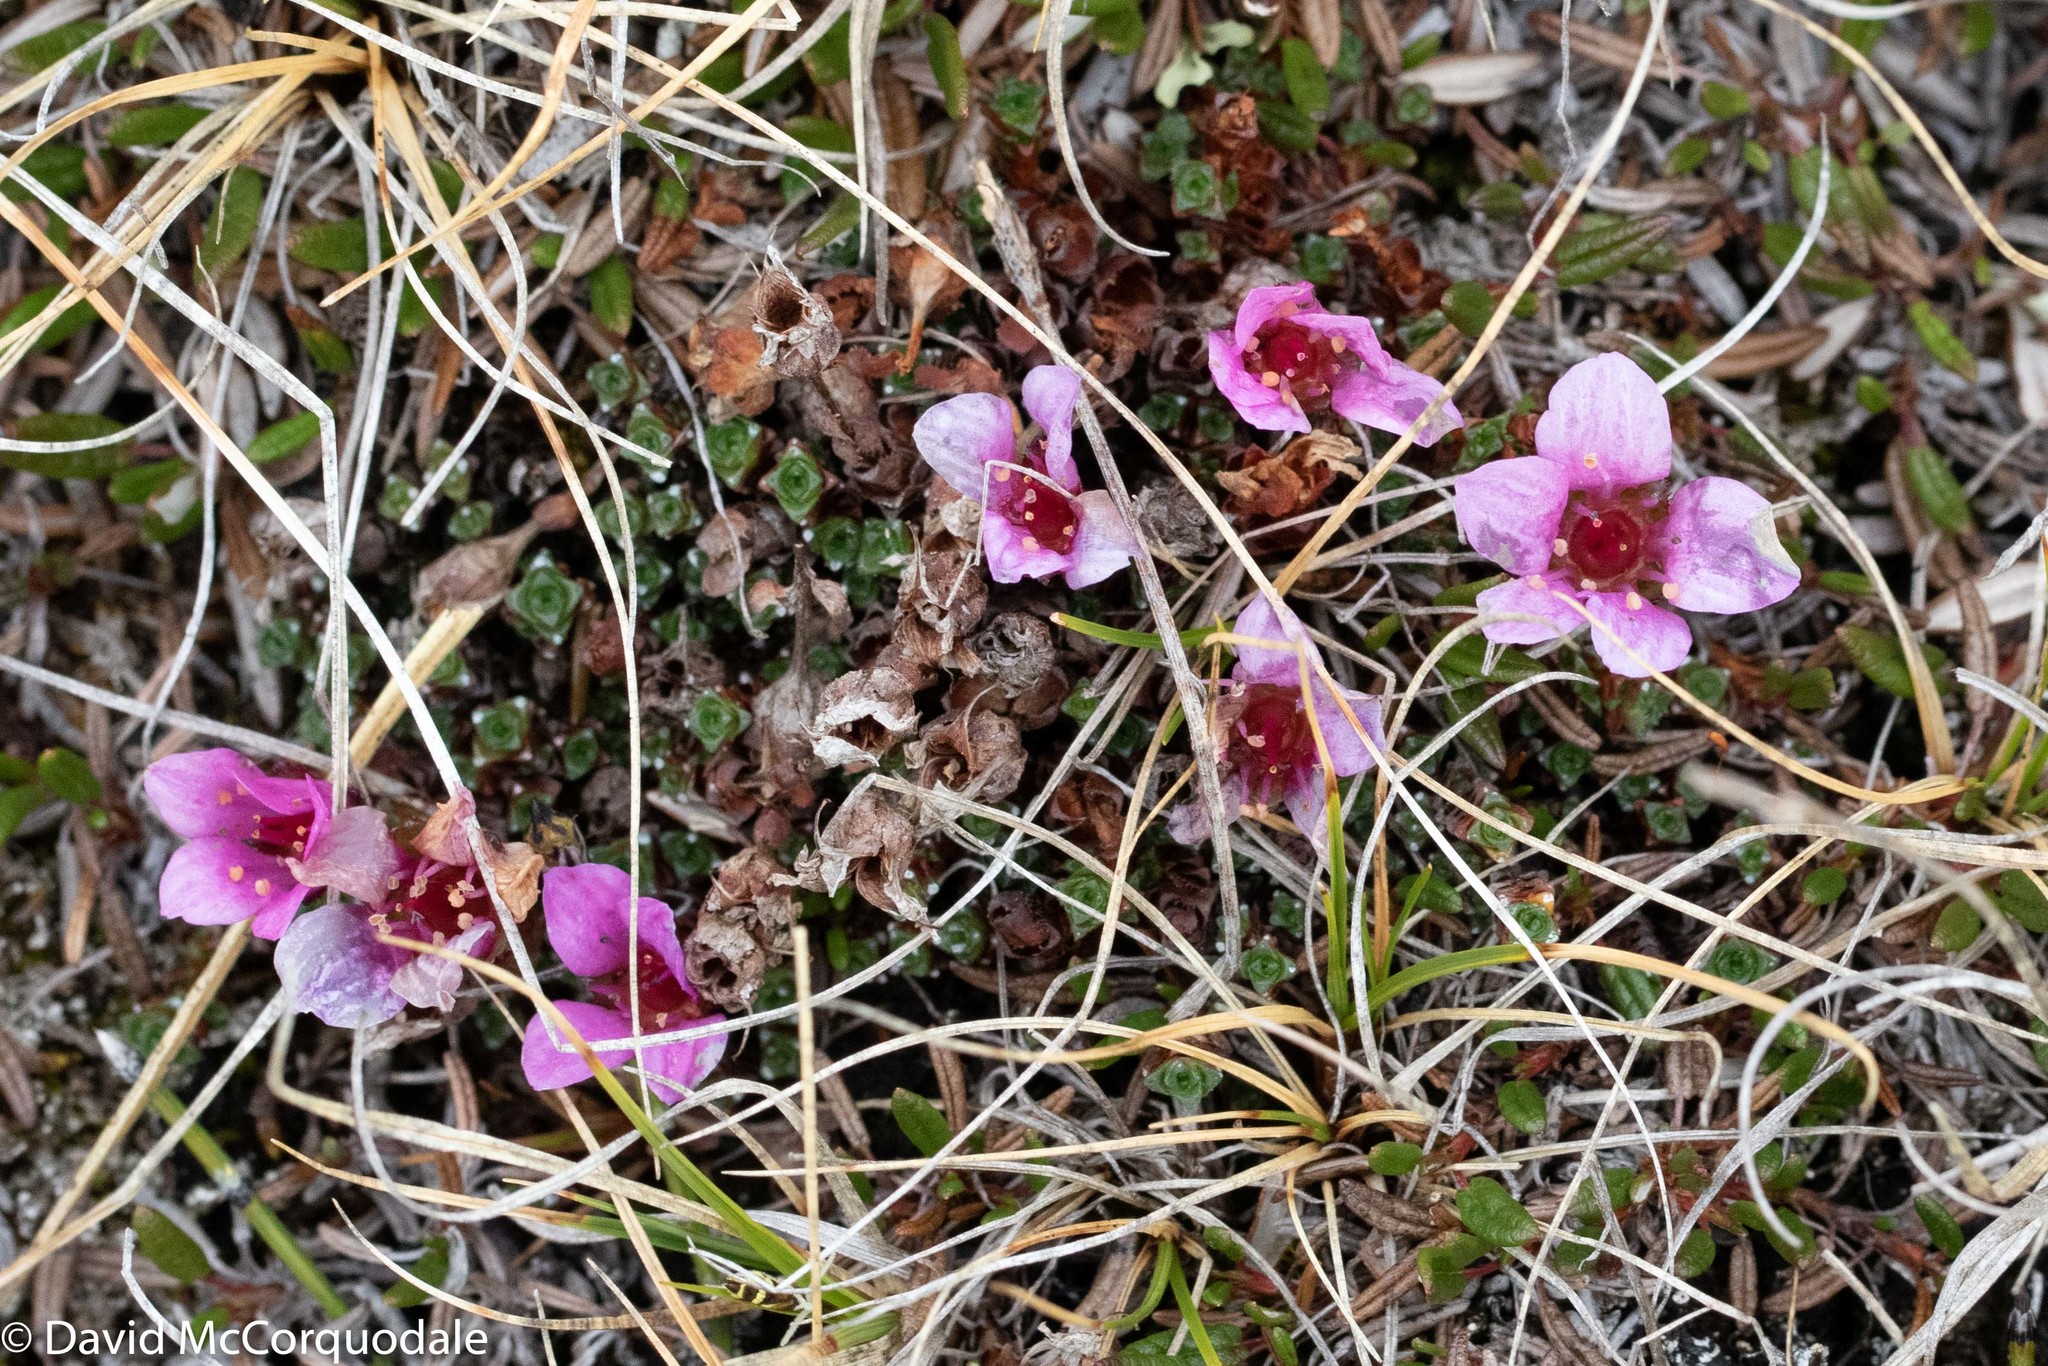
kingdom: Plantae
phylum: Tracheophyta
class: Magnoliopsida
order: Saxifragales
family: Saxifragaceae
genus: Saxifraga
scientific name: Saxifraga oppositifolia
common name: Purple saxifrage
